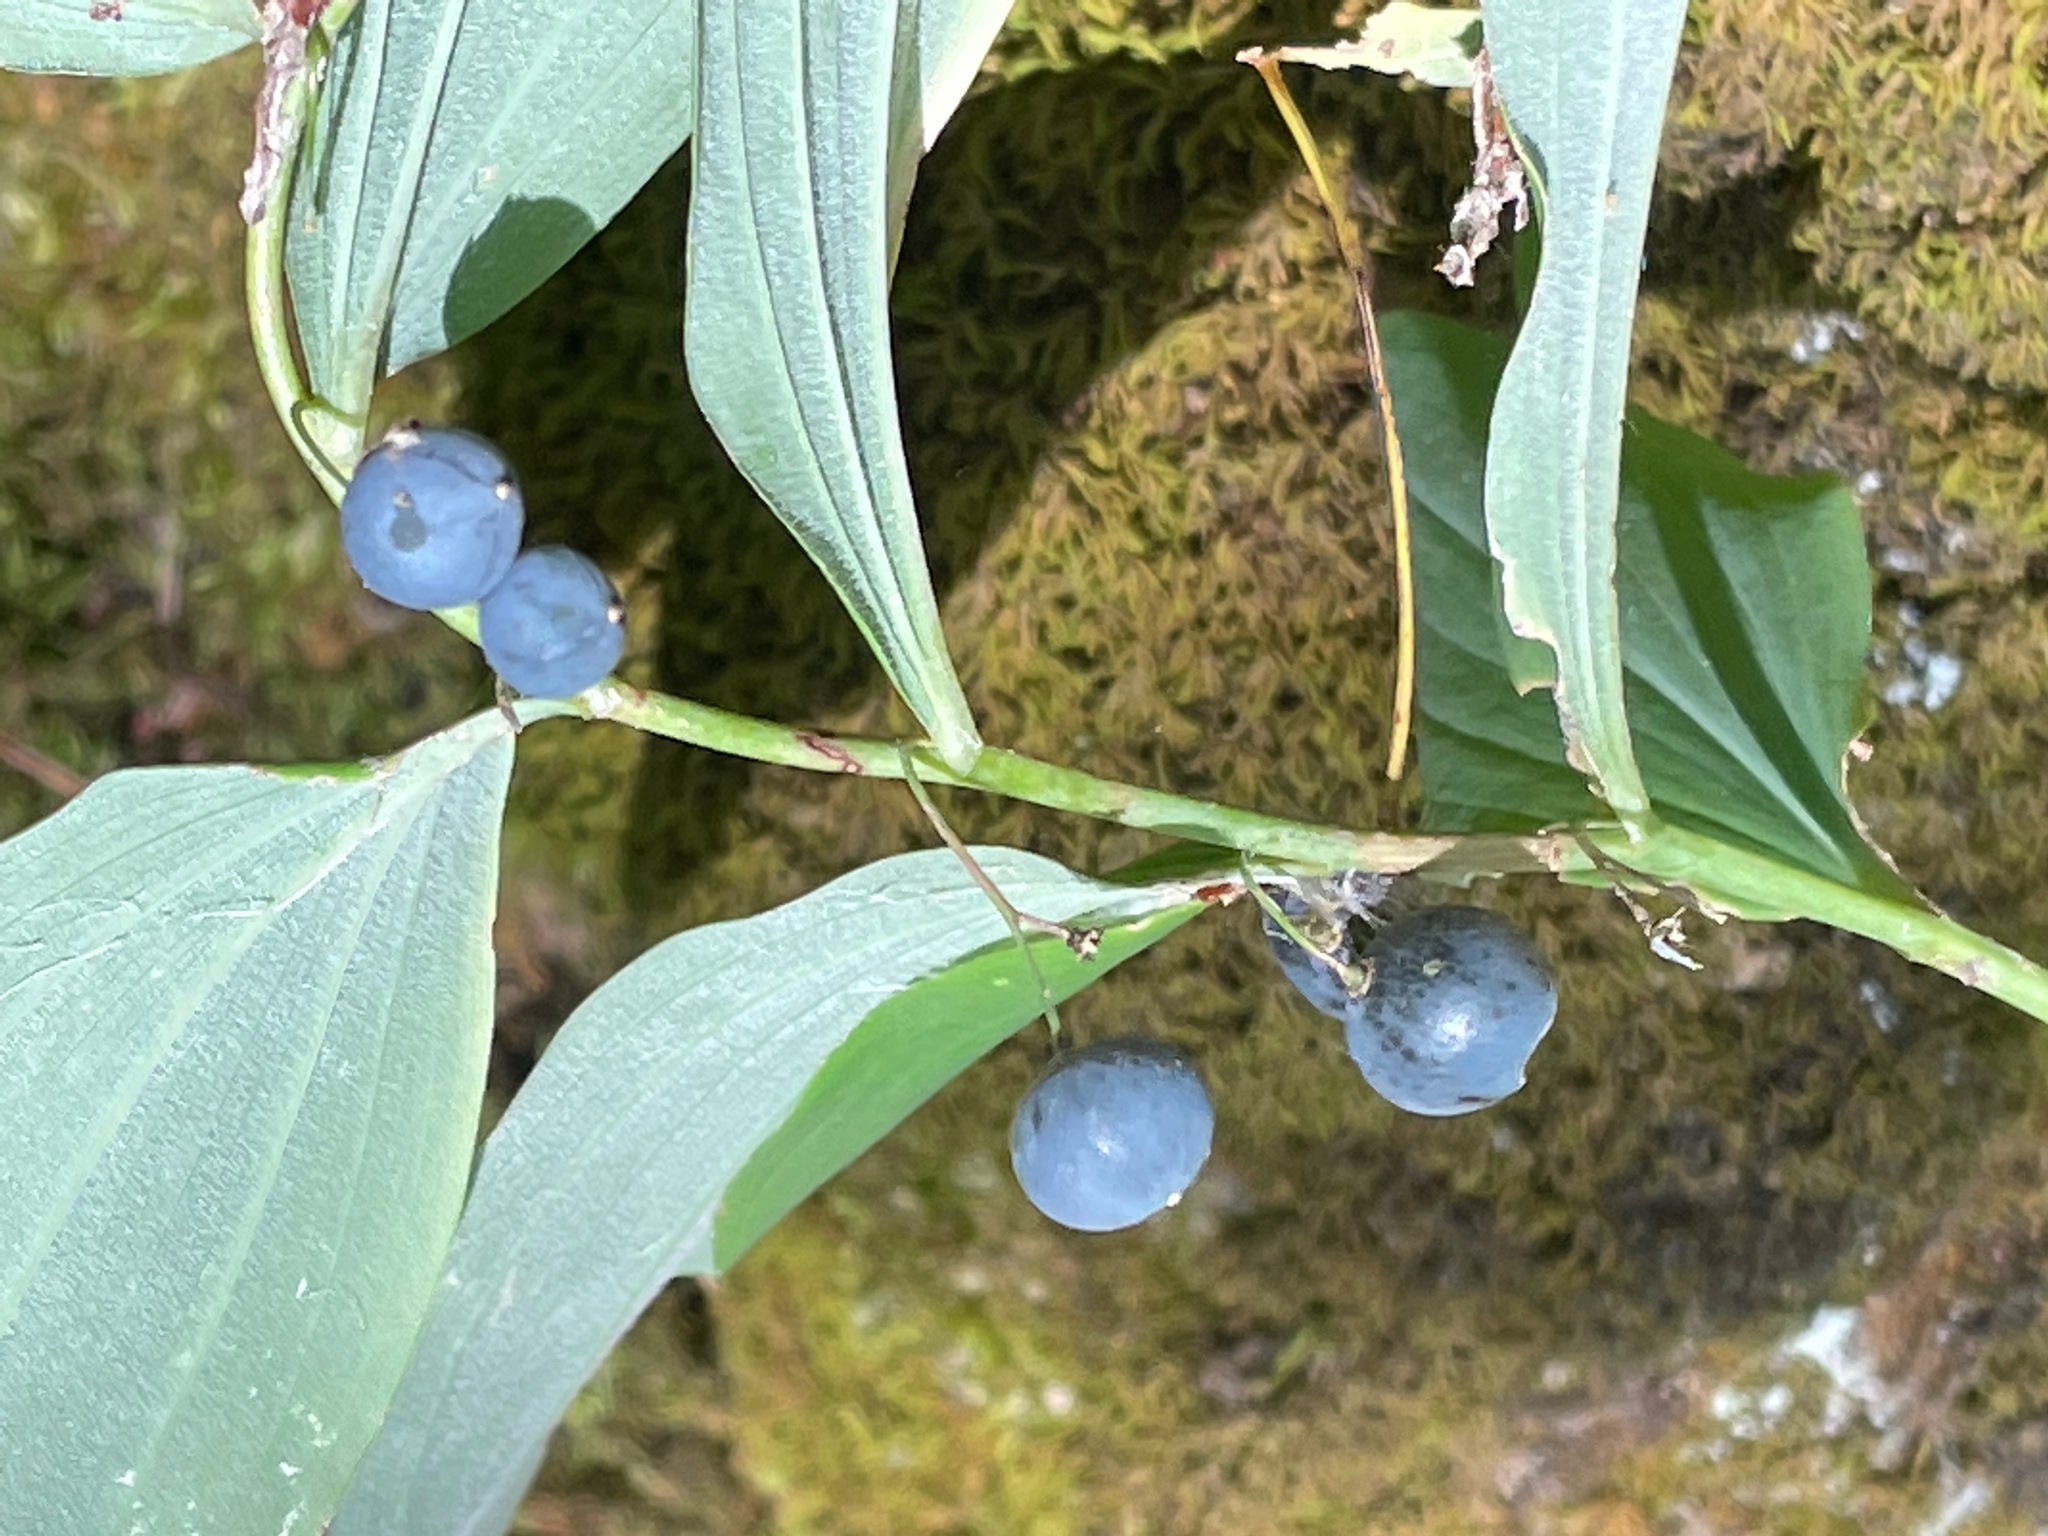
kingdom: Plantae
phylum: Tracheophyta
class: Liliopsida
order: Asparagales
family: Asparagaceae
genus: Polygonatum
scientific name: Polygonatum pubescens
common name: Downy solomon's seal
